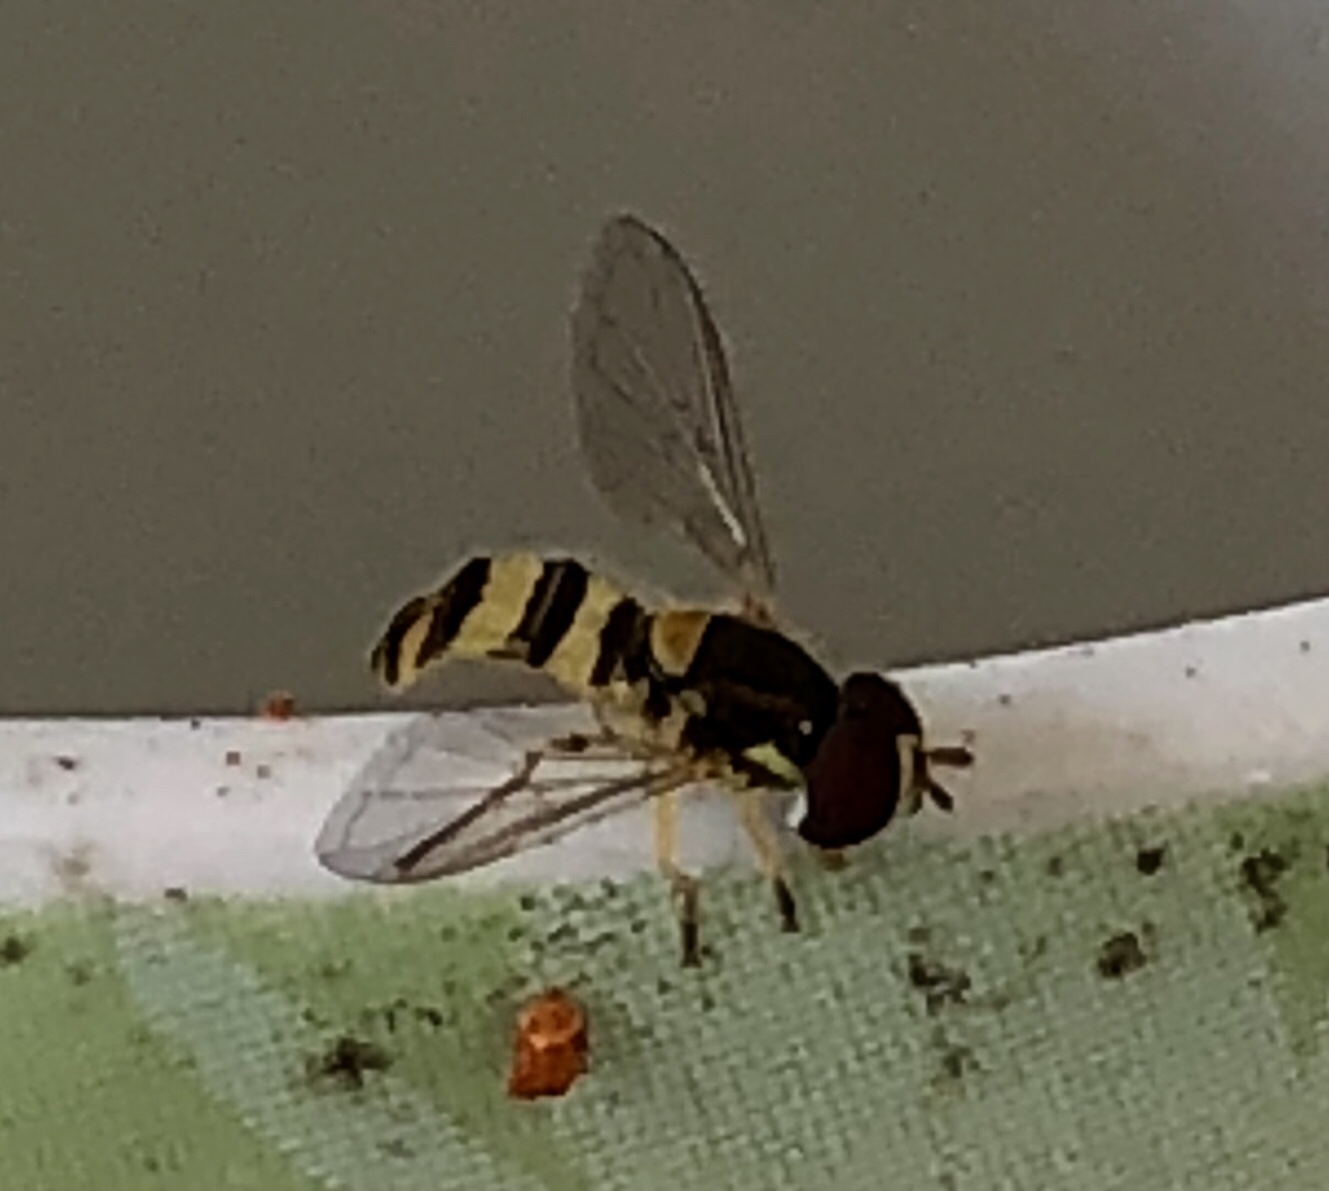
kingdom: Animalia
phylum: Arthropoda
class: Insecta
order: Diptera
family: Syrphidae
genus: Allograpta
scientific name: Allograpta exotica
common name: Syrphid fly
